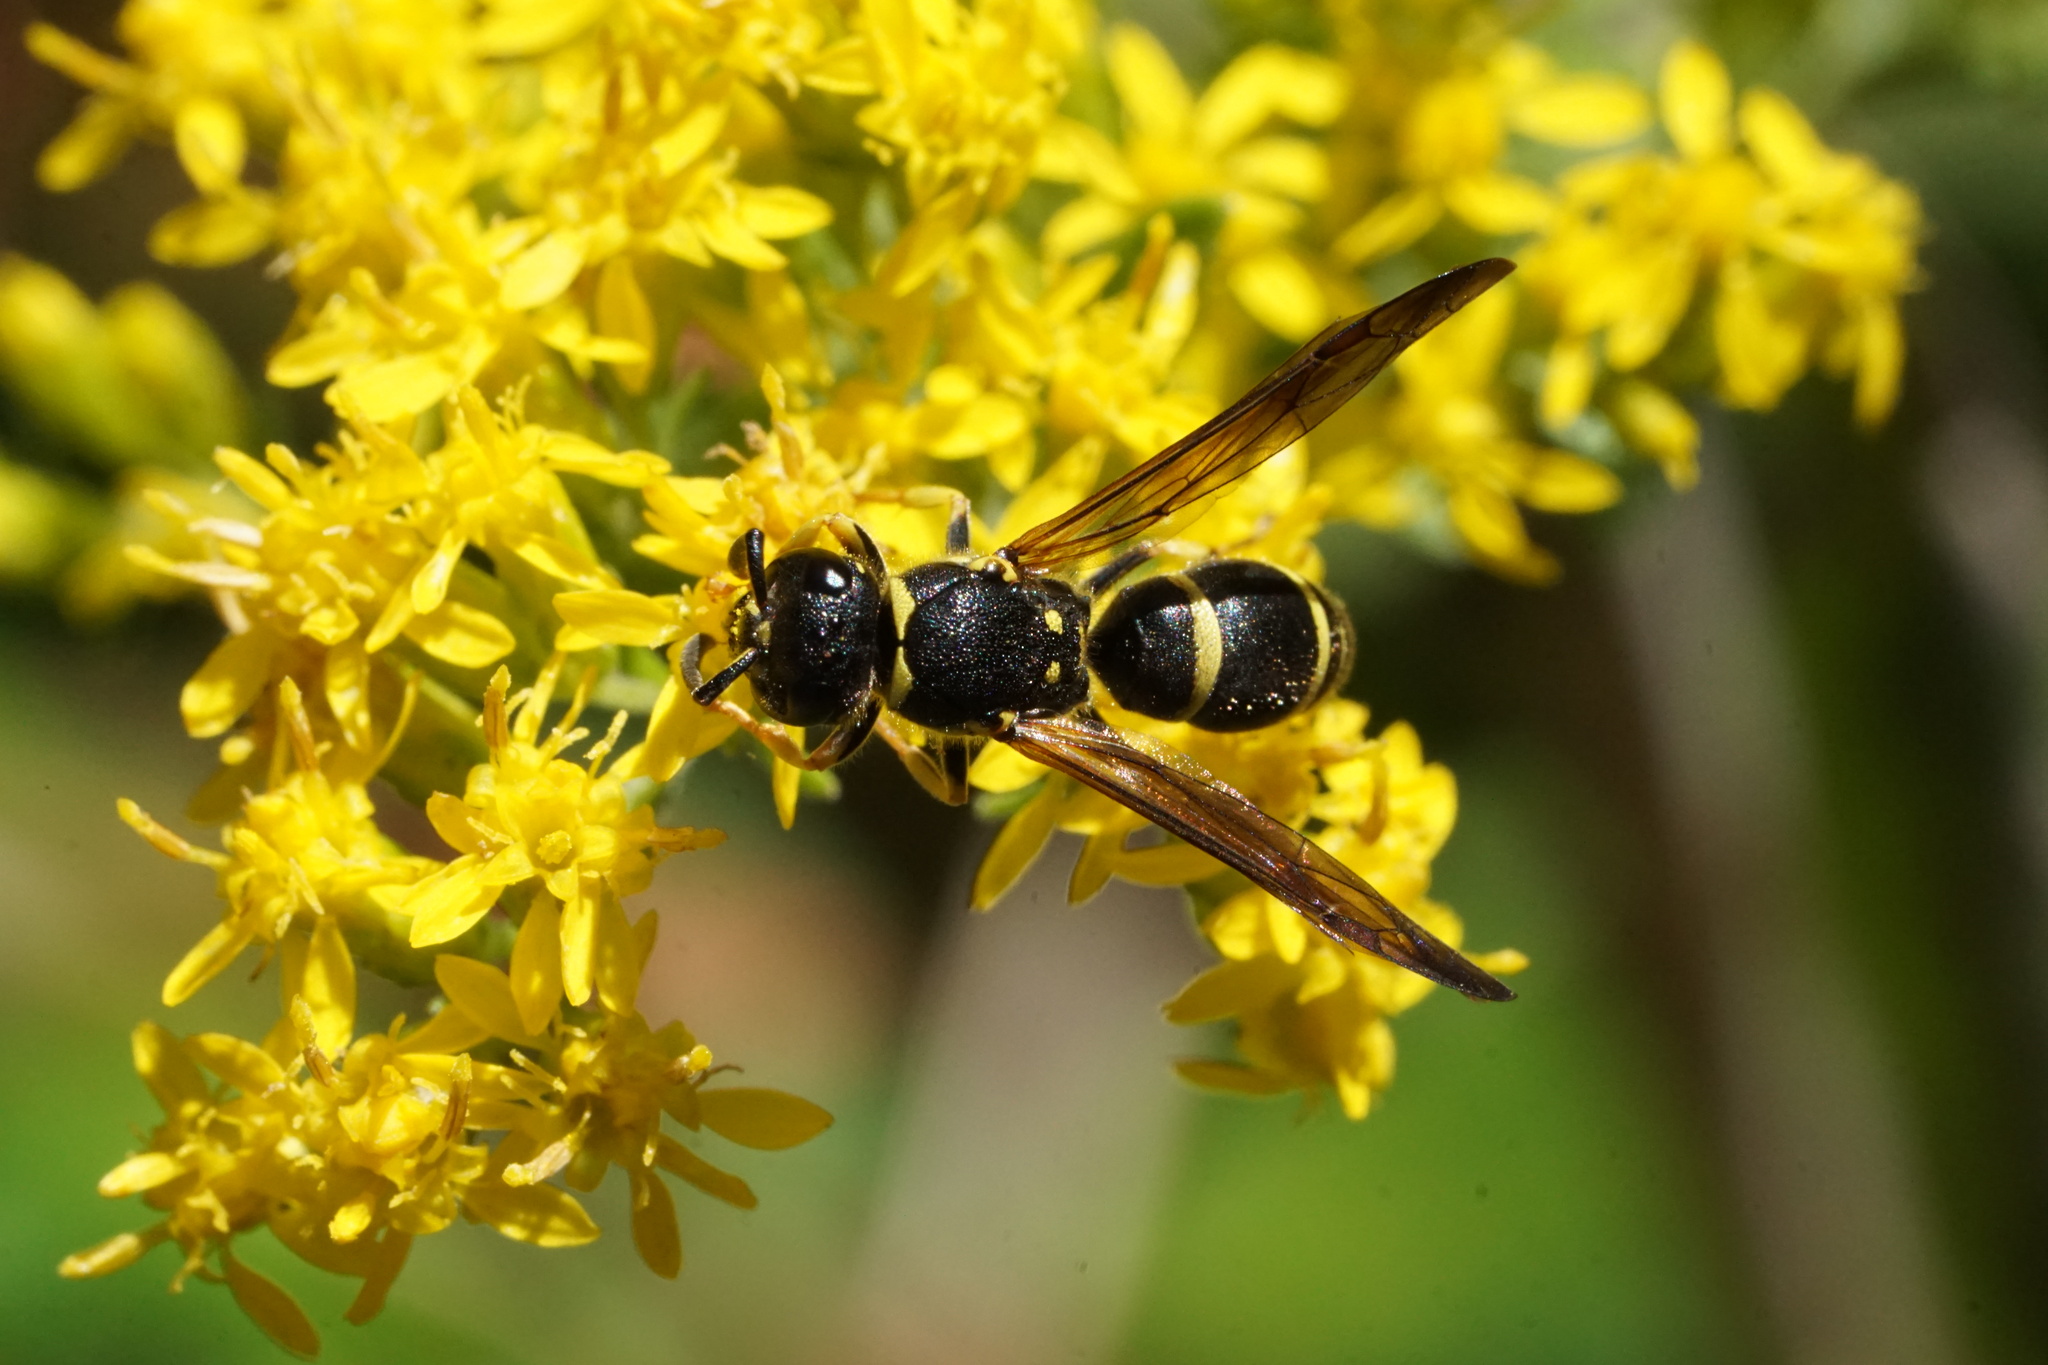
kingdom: Animalia
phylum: Arthropoda
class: Insecta
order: Hymenoptera
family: Vespidae
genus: Ancistrocerus
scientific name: Ancistrocerus adiabatus
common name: Bramble mason wasp
